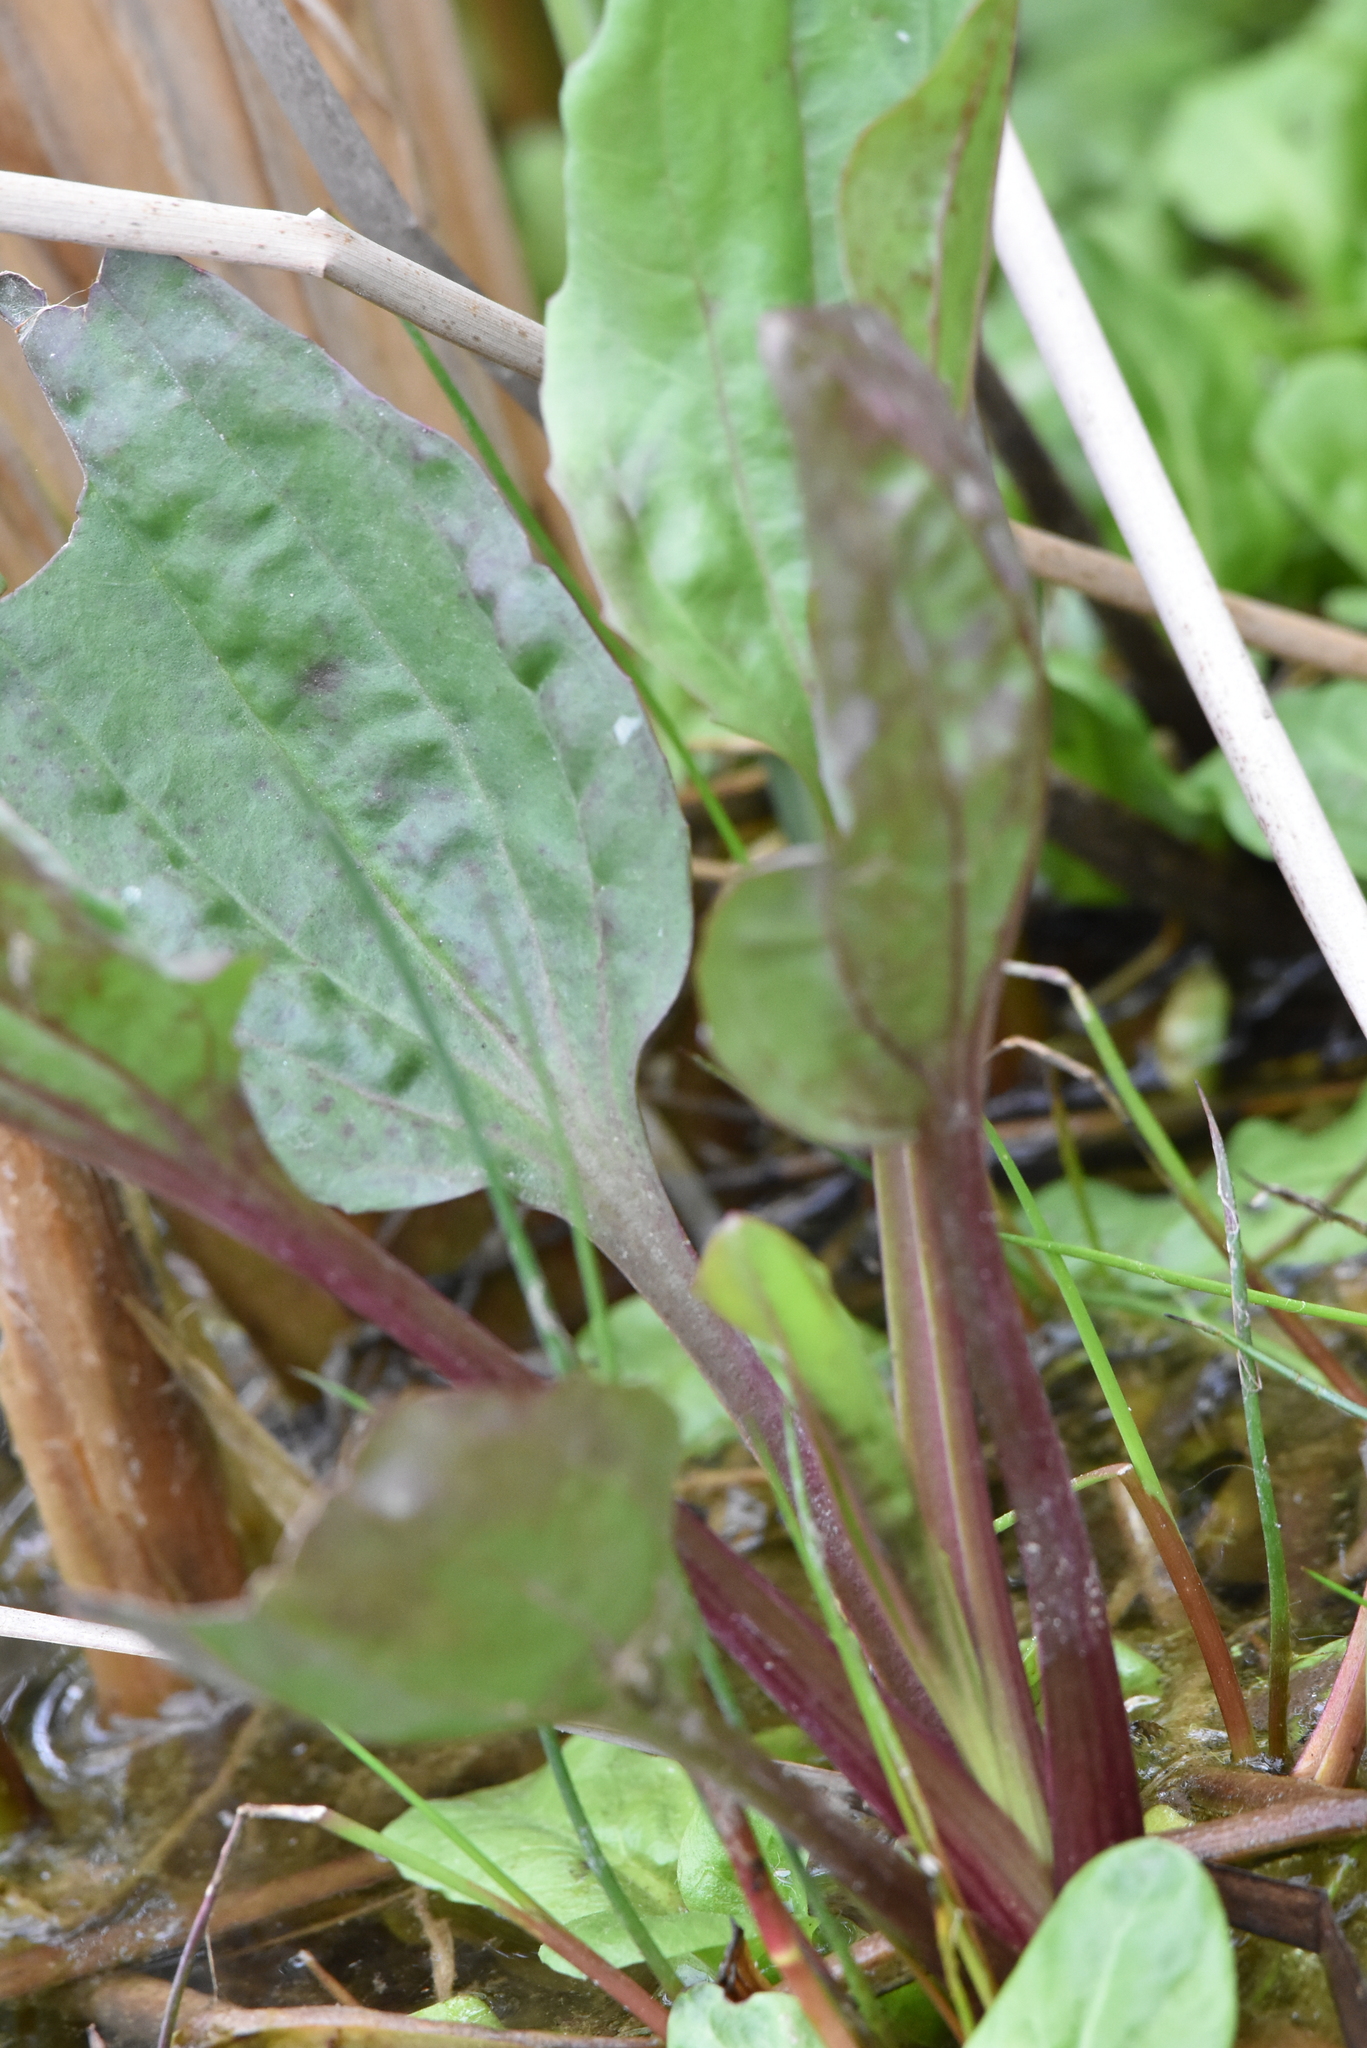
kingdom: Plantae
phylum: Tracheophyta
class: Magnoliopsida
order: Lamiales
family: Plantaginaceae
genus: Plantago
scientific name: Plantago major
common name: Common plantain
